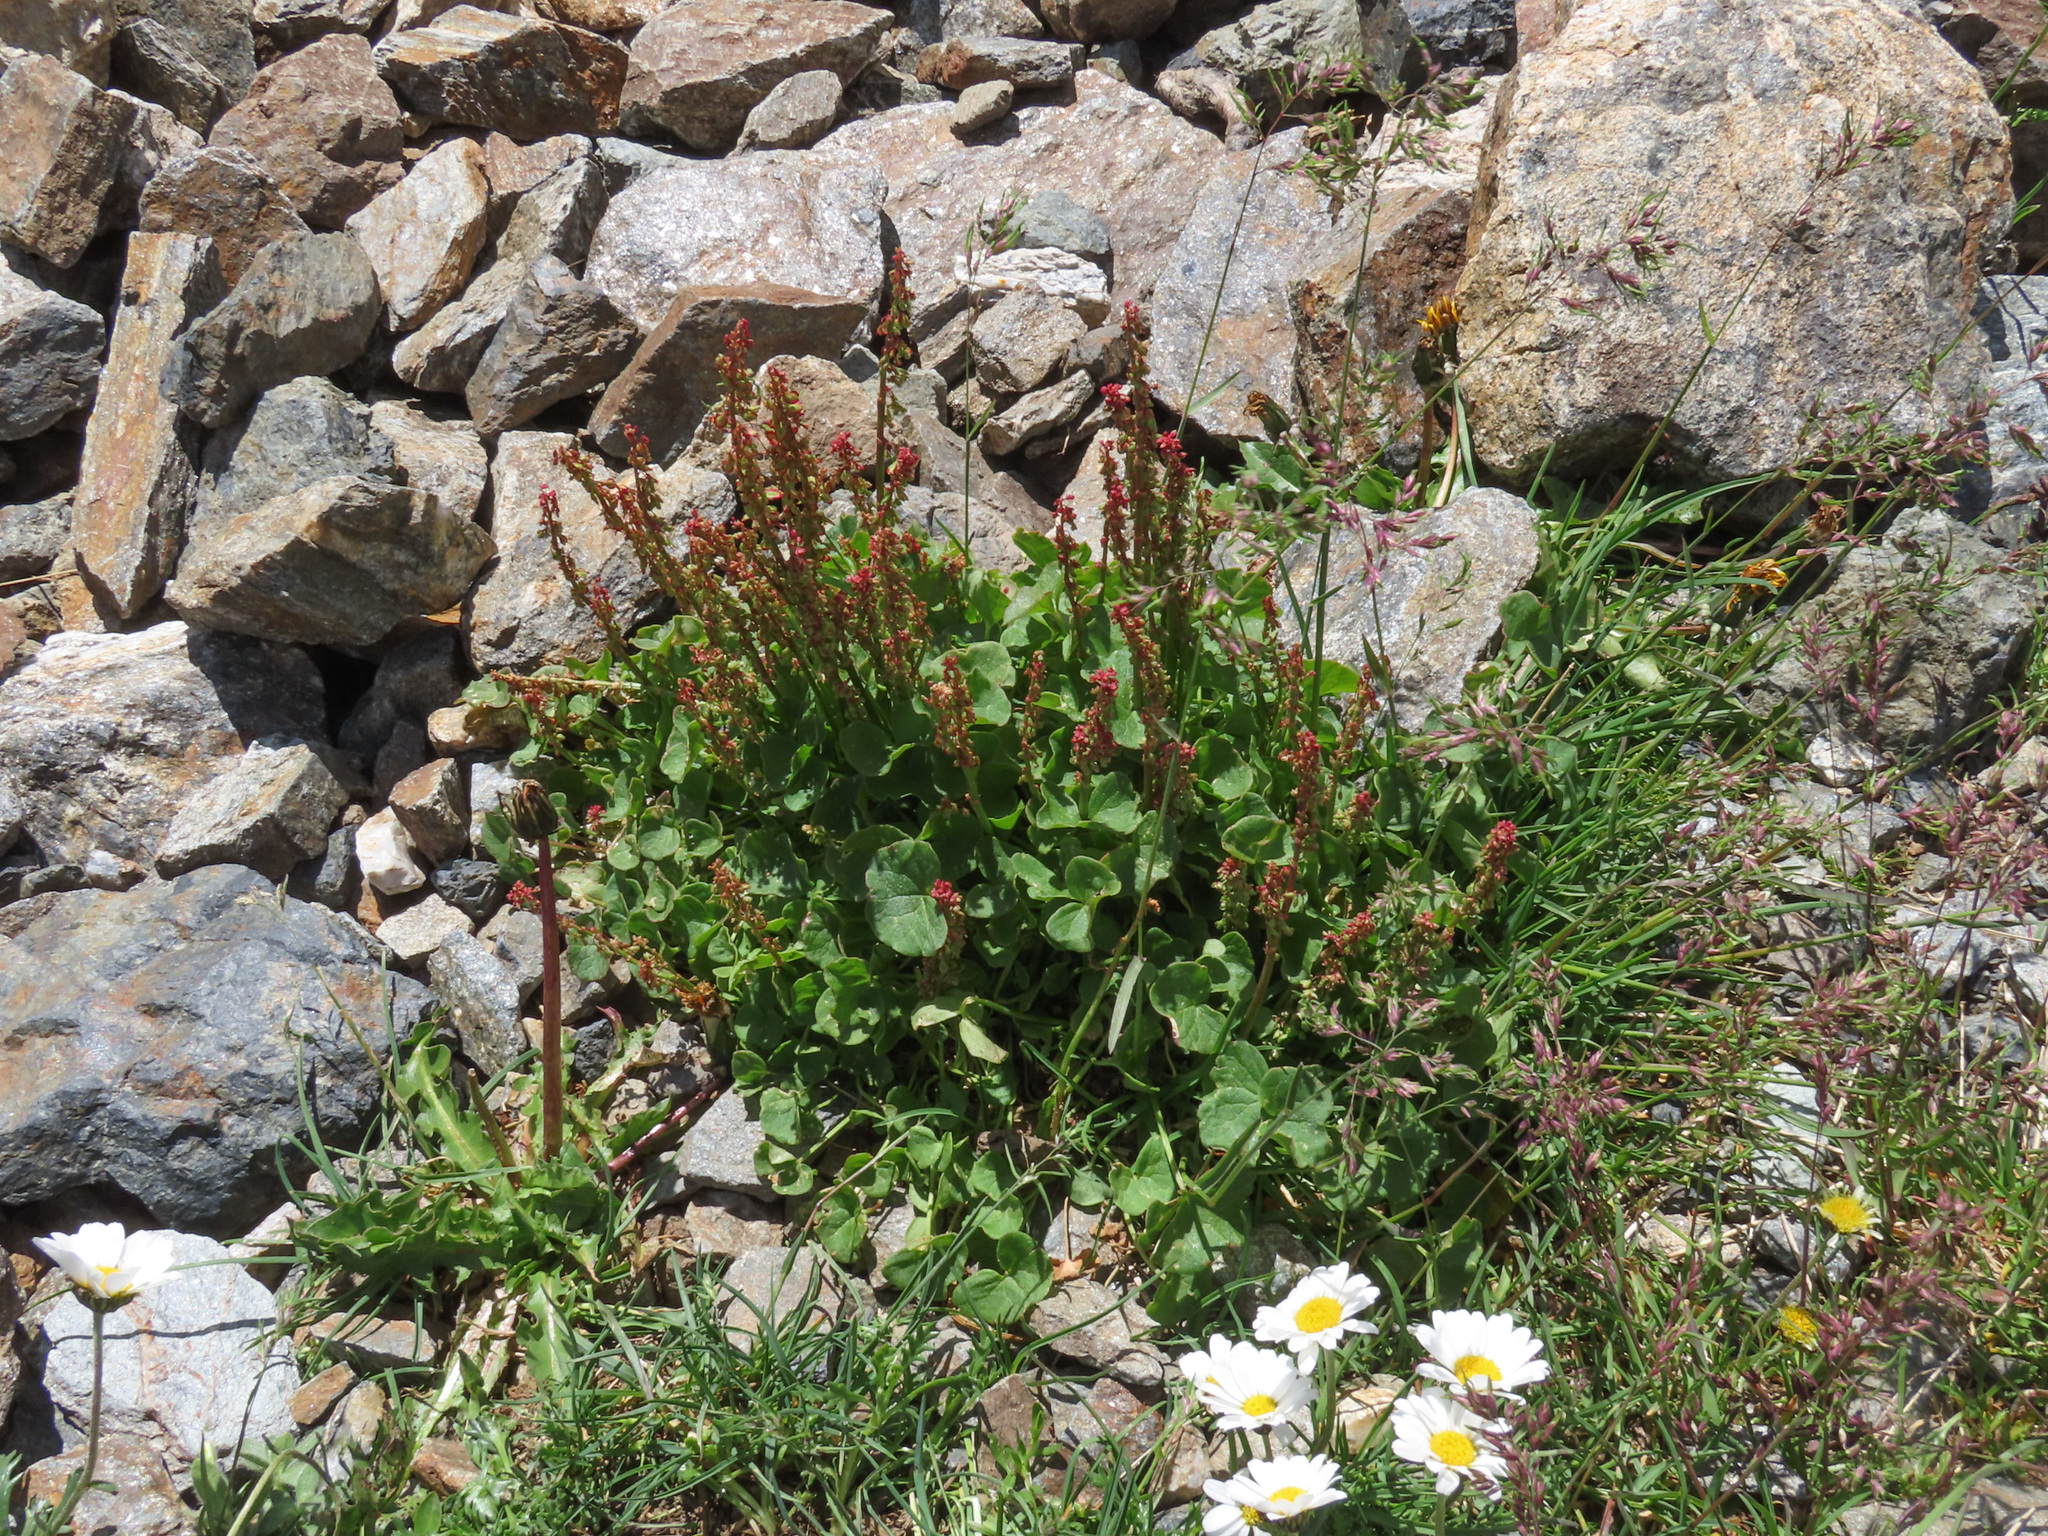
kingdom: Plantae
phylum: Tracheophyta
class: Magnoliopsida
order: Caryophyllales
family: Polygonaceae
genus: Oxyria
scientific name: Oxyria digyna
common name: Alpine mountain-sorrel
